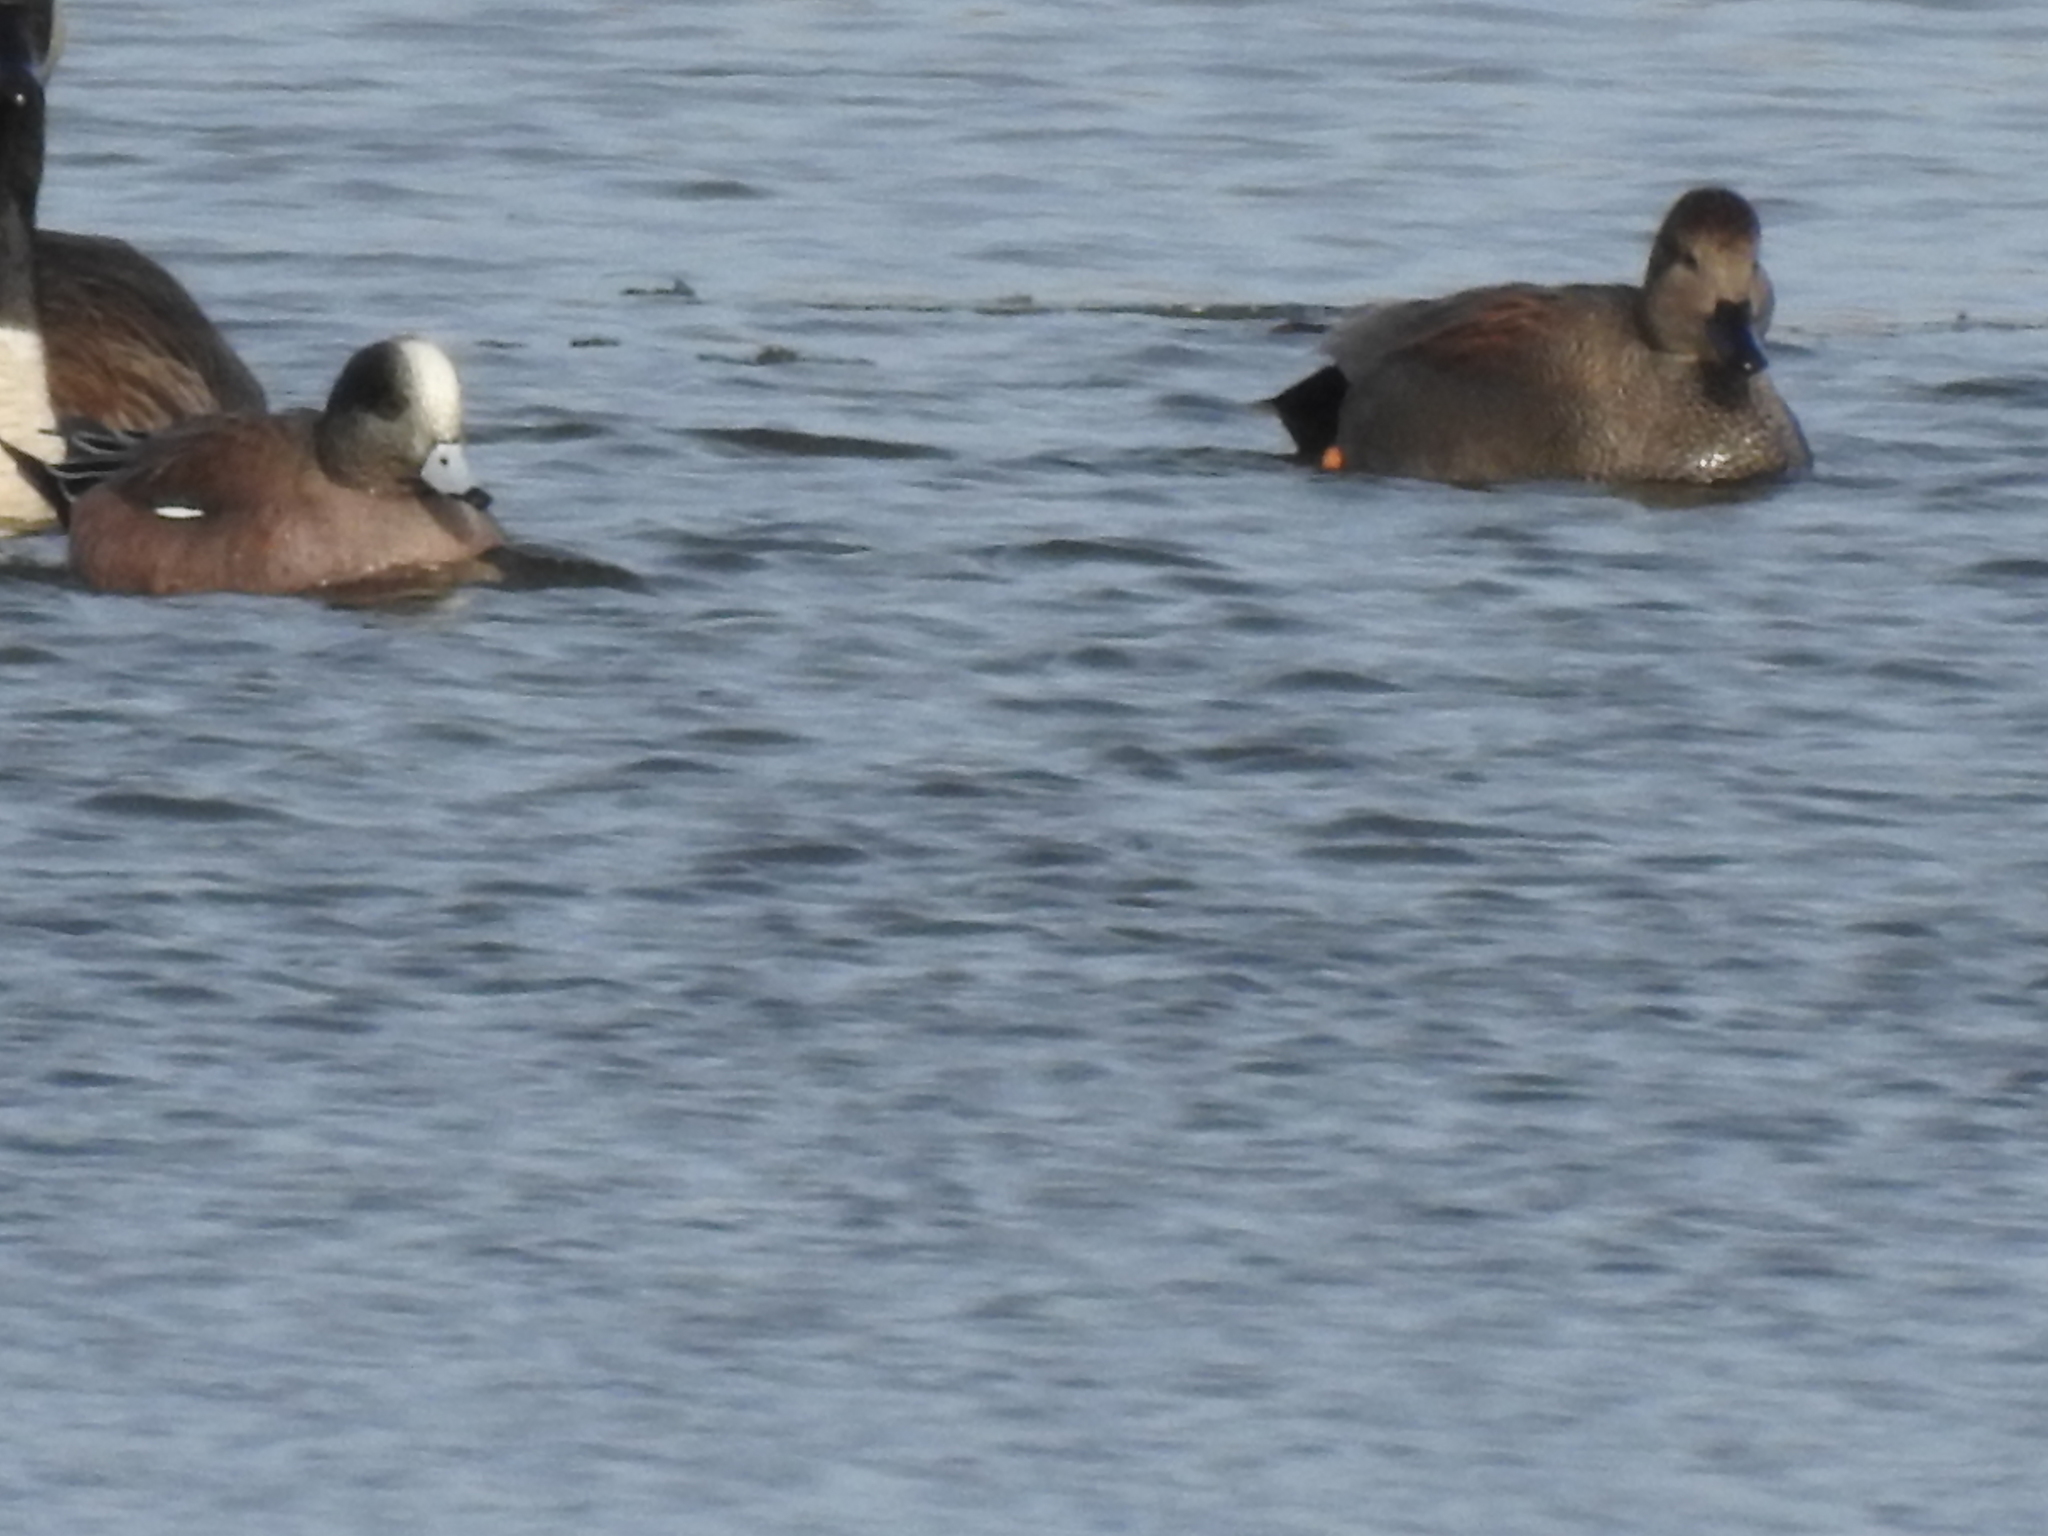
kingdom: Animalia
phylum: Chordata
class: Aves
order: Anseriformes
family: Anatidae
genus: Mareca
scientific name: Mareca americana
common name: American wigeon
